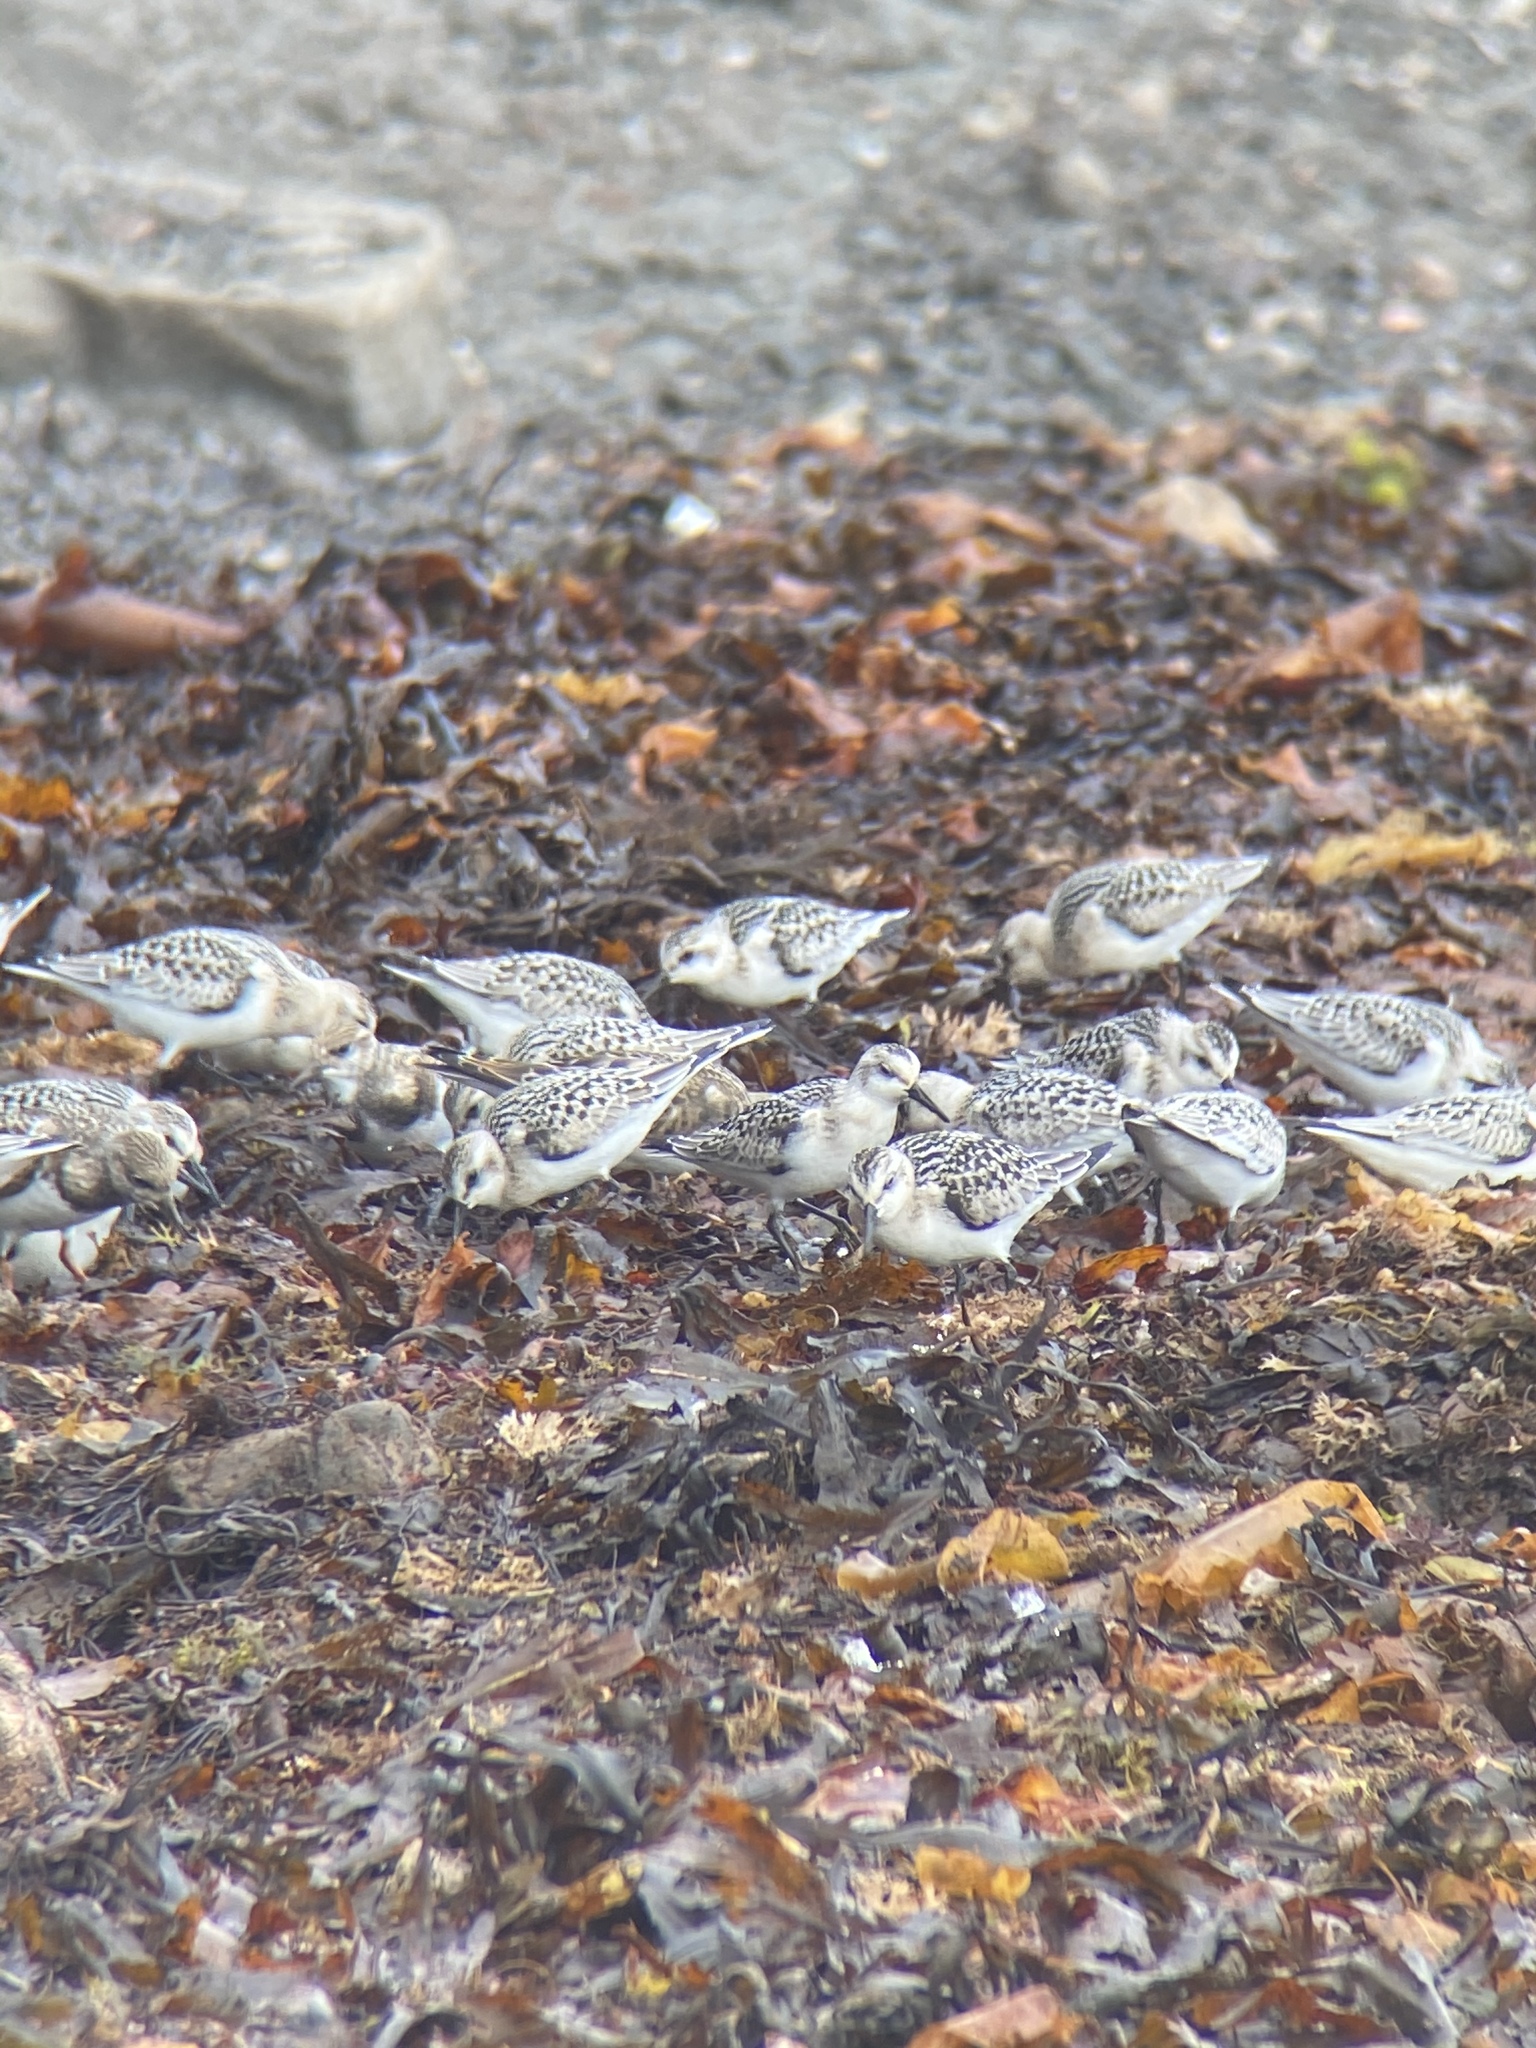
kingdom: Animalia
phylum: Chordata
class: Aves
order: Charadriiformes
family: Scolopacidae
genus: Calidris
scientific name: Calidris alba
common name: Sanderling
